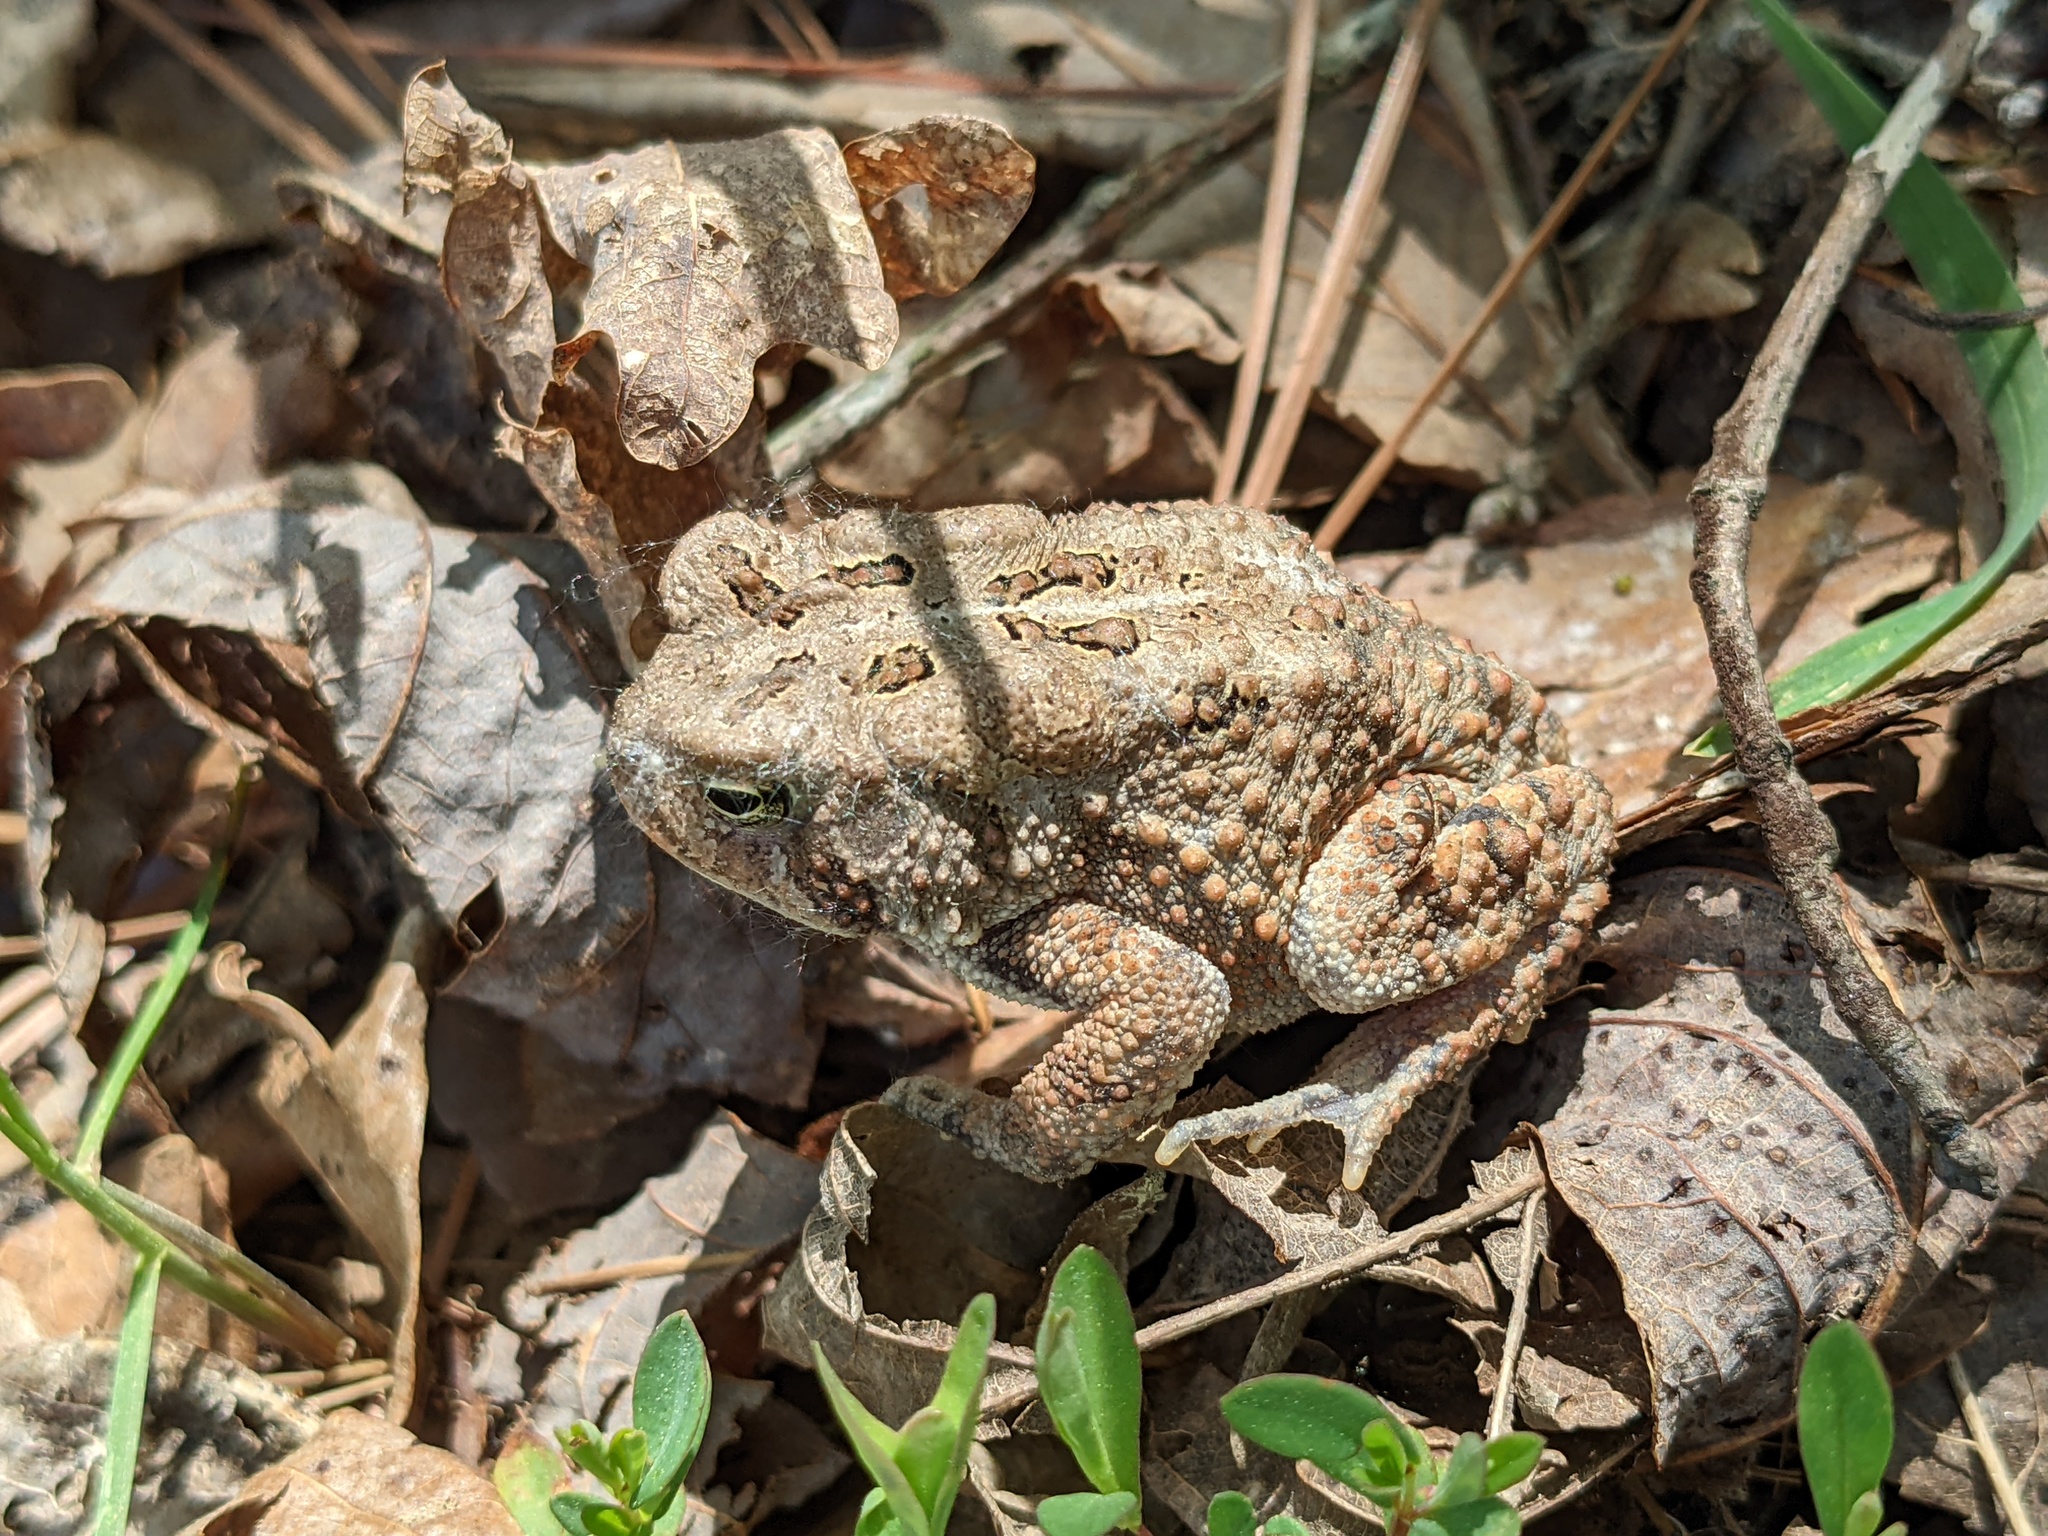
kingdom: Animalia
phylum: Chordata
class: Amphibia
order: Anura
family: Bufonidae
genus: Anaxyrus
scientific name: Anaxyrus americanus
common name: American toad
